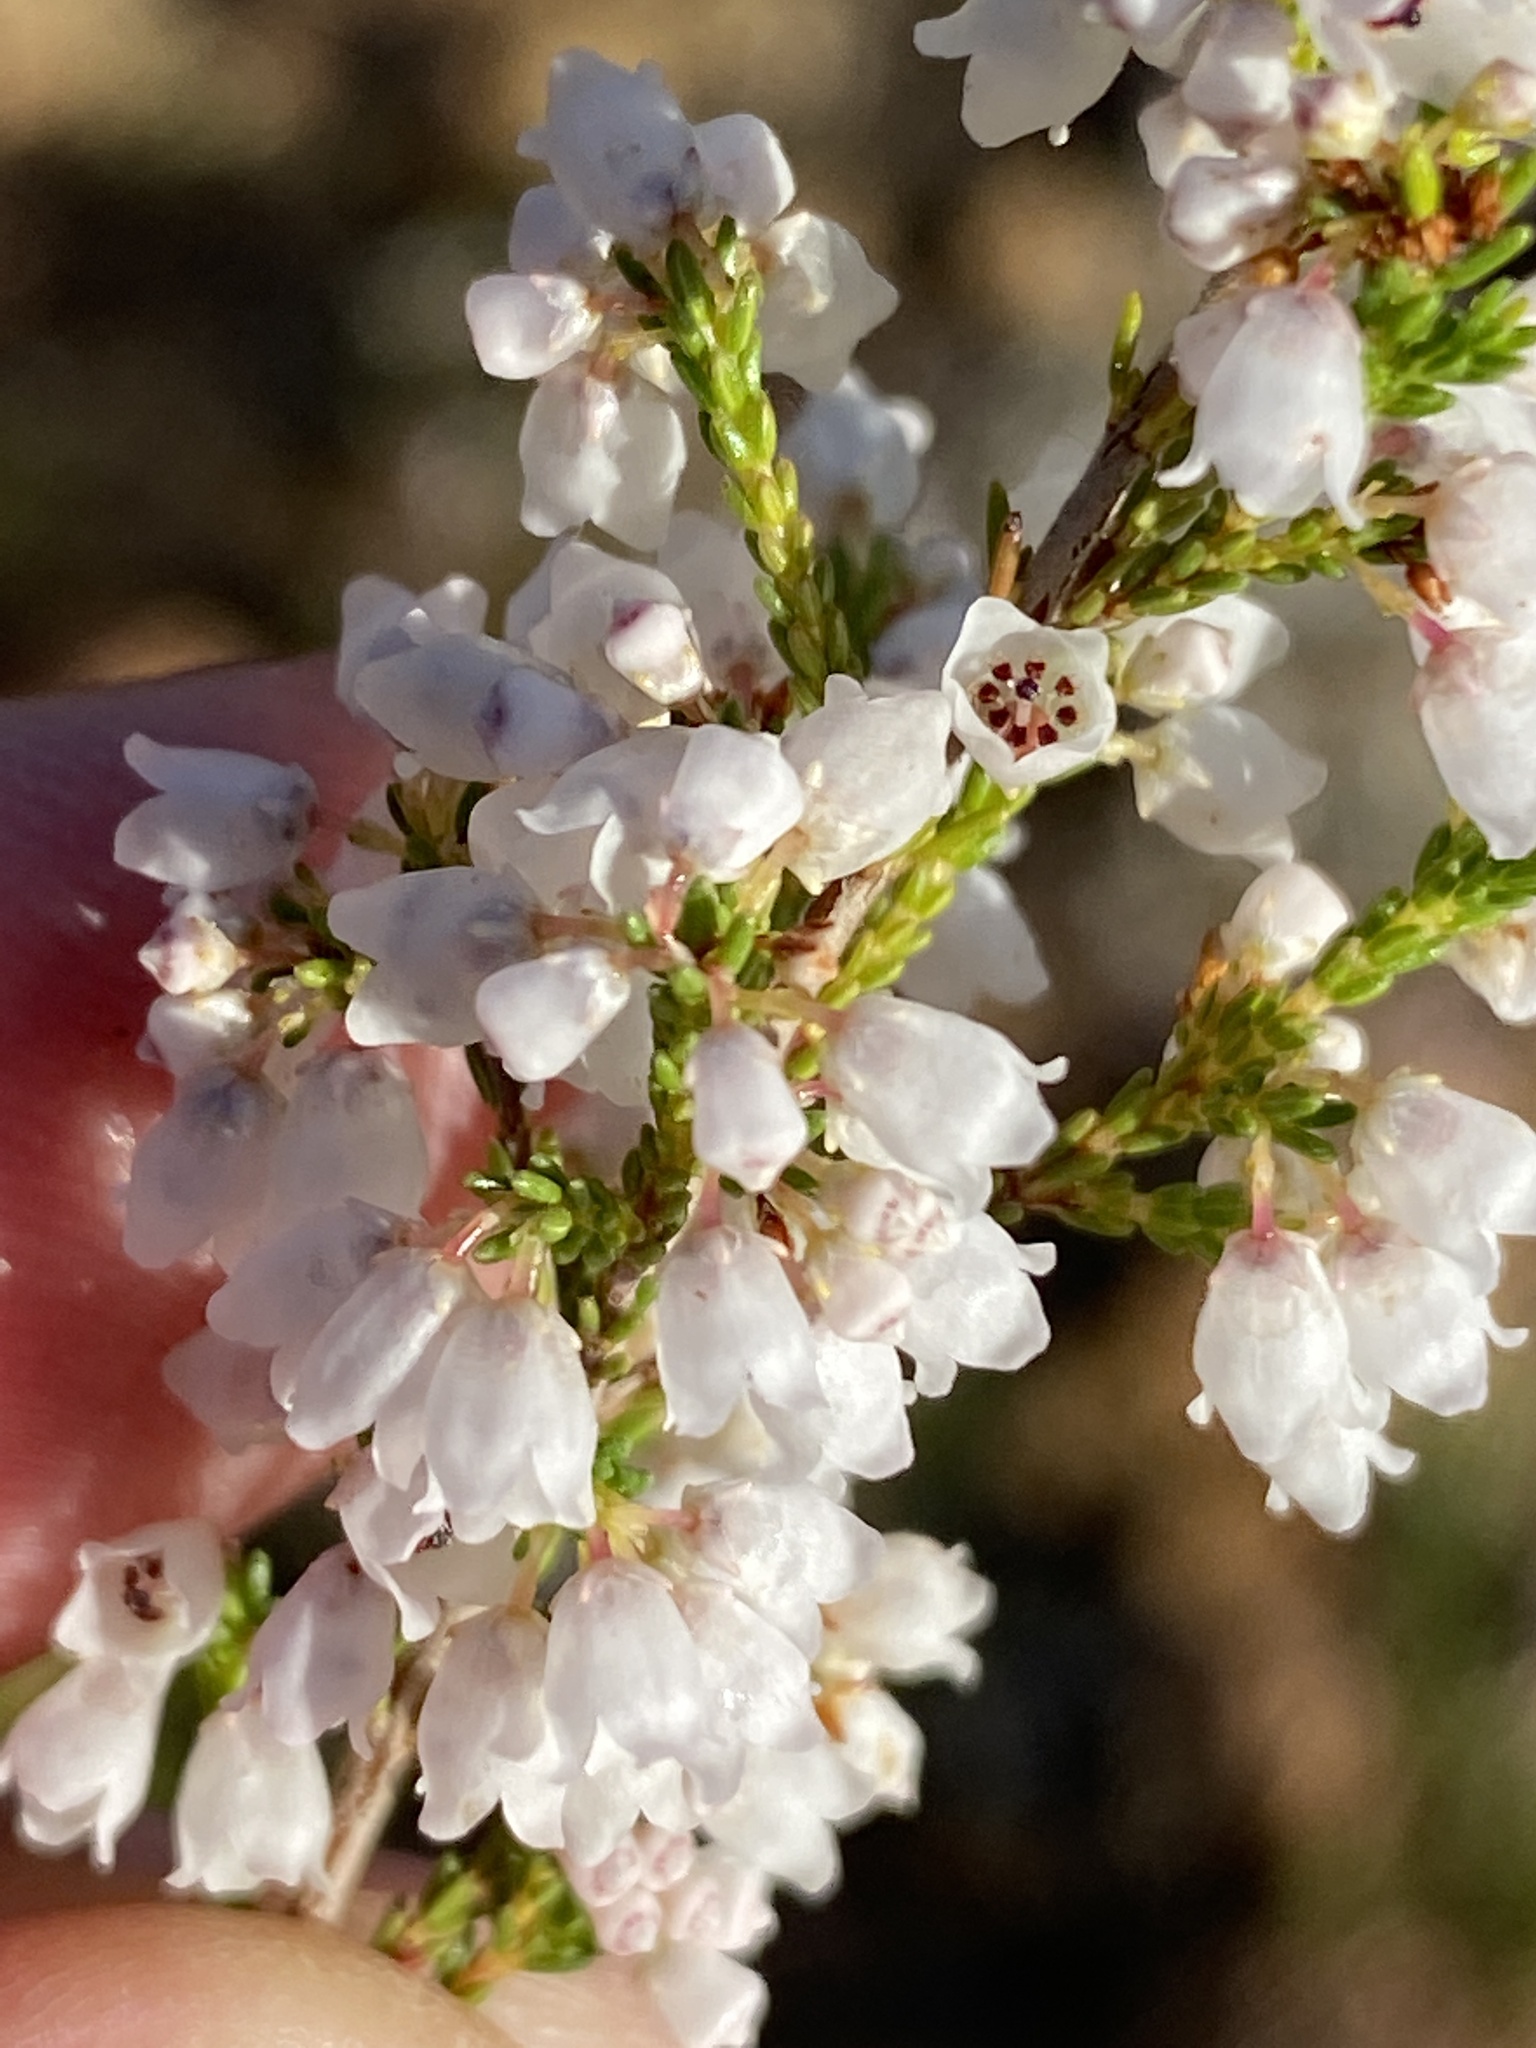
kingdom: Plantae
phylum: Tracheophyta
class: Magnoliopsida
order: Ericales
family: Ericaceae
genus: Erica
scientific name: Erica quadrangularis
